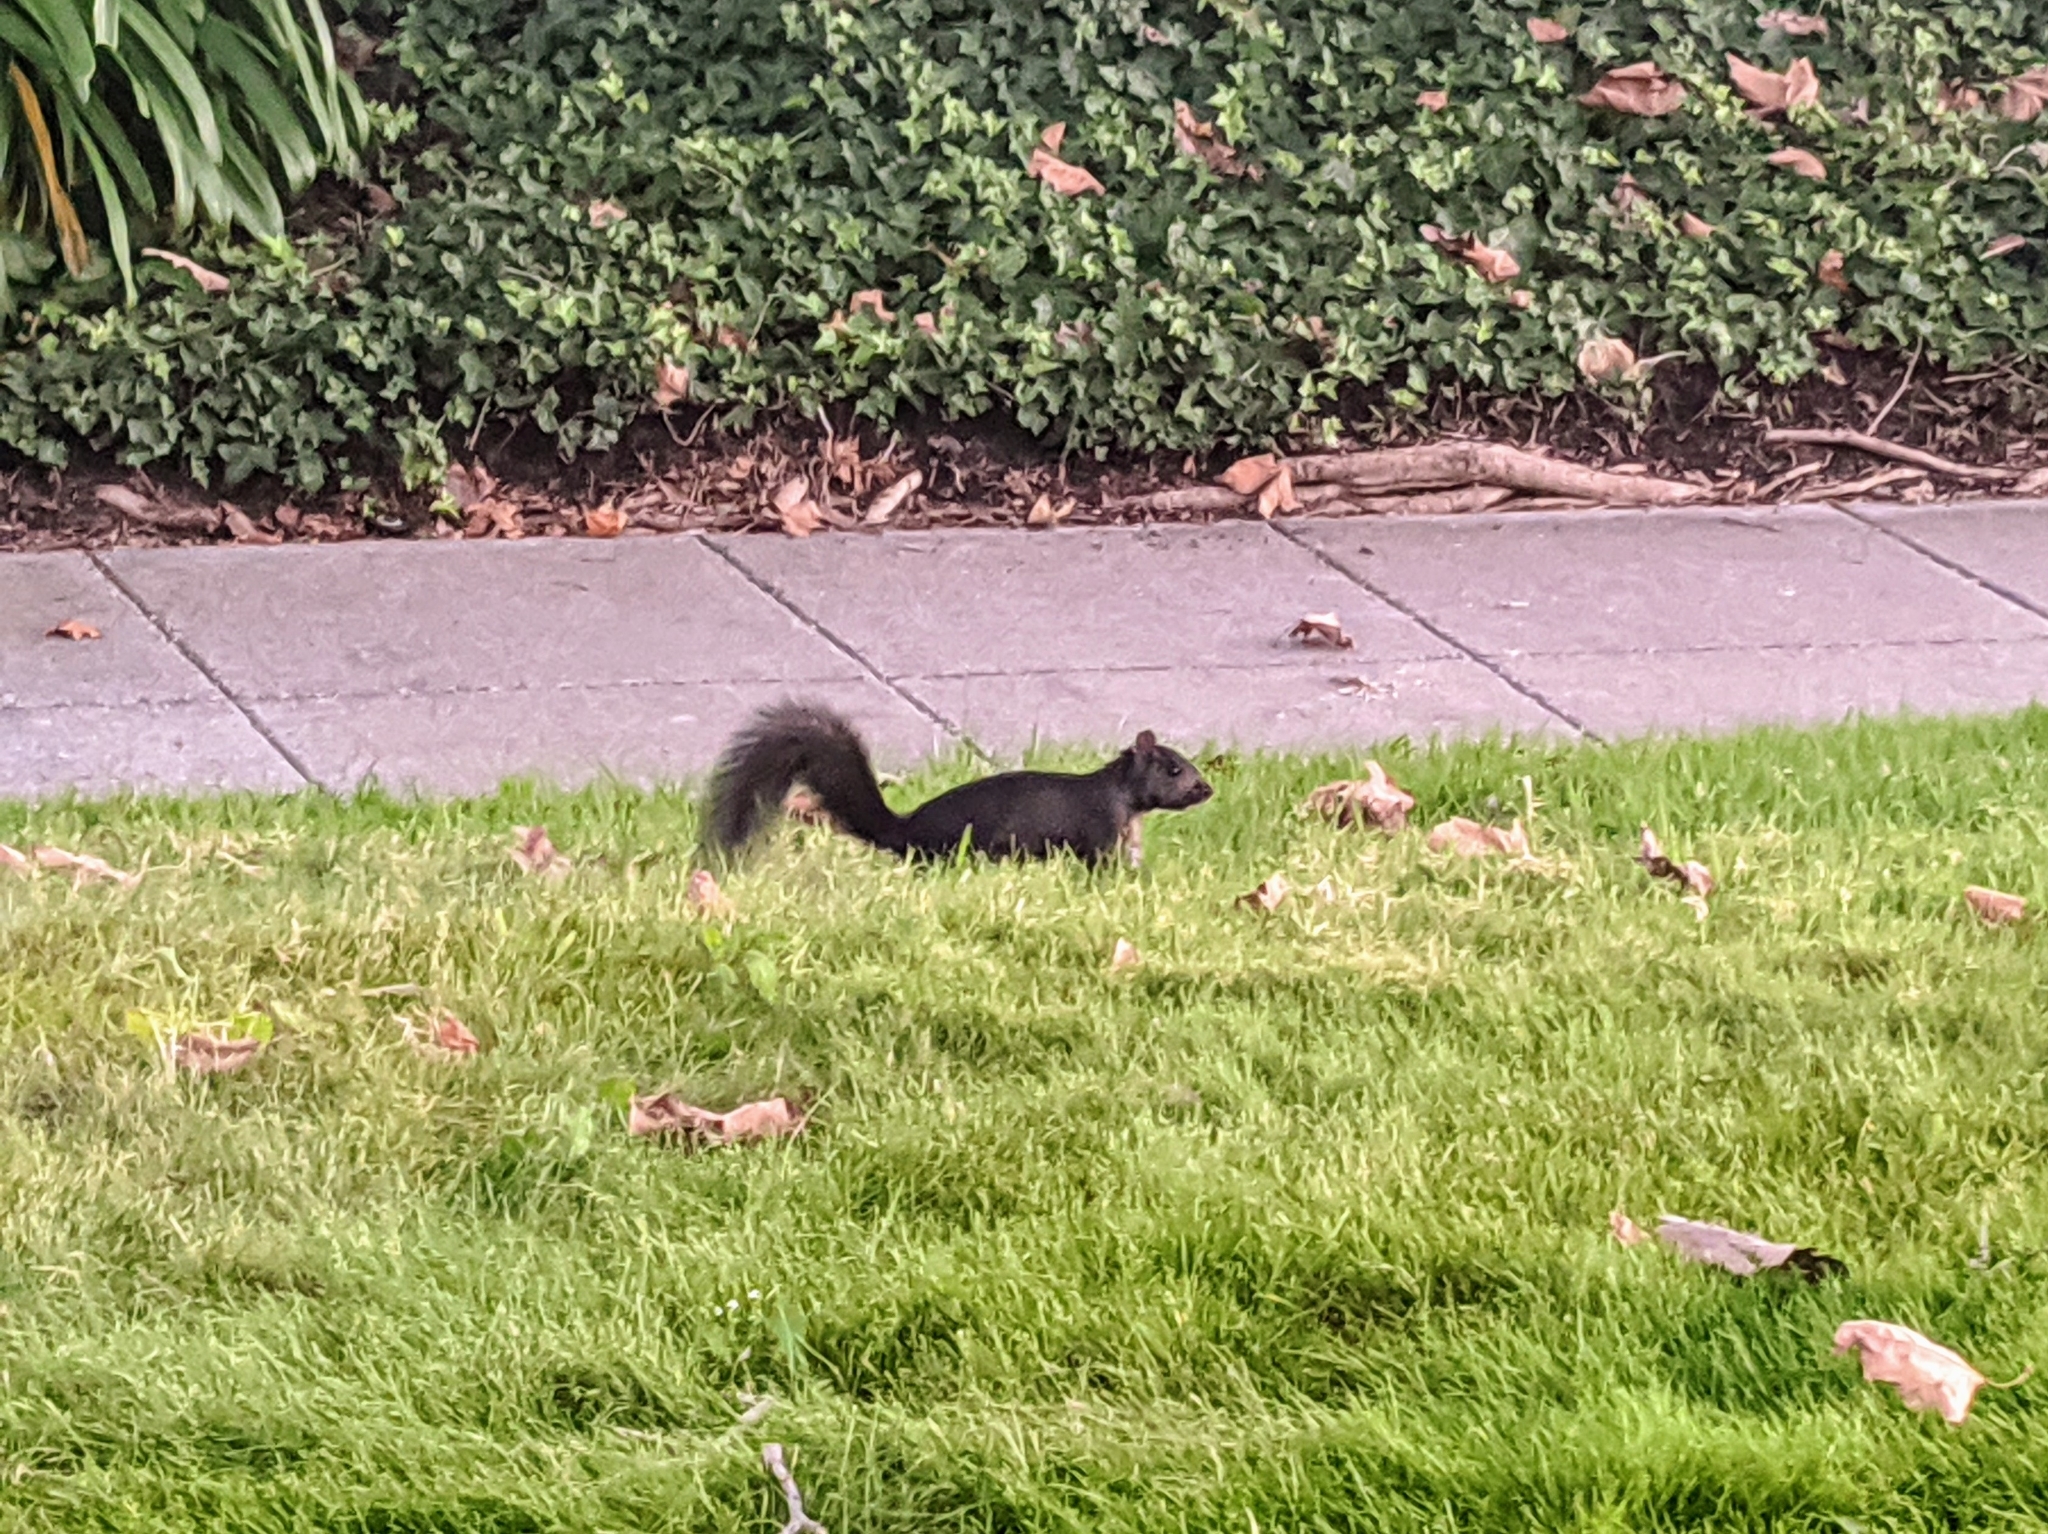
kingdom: Animalia
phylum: Chordata
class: Mammalia
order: Rodentia
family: Sciuridae
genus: Sciurus
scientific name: Sciurus carolinensis
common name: Eastern gray squirrel
